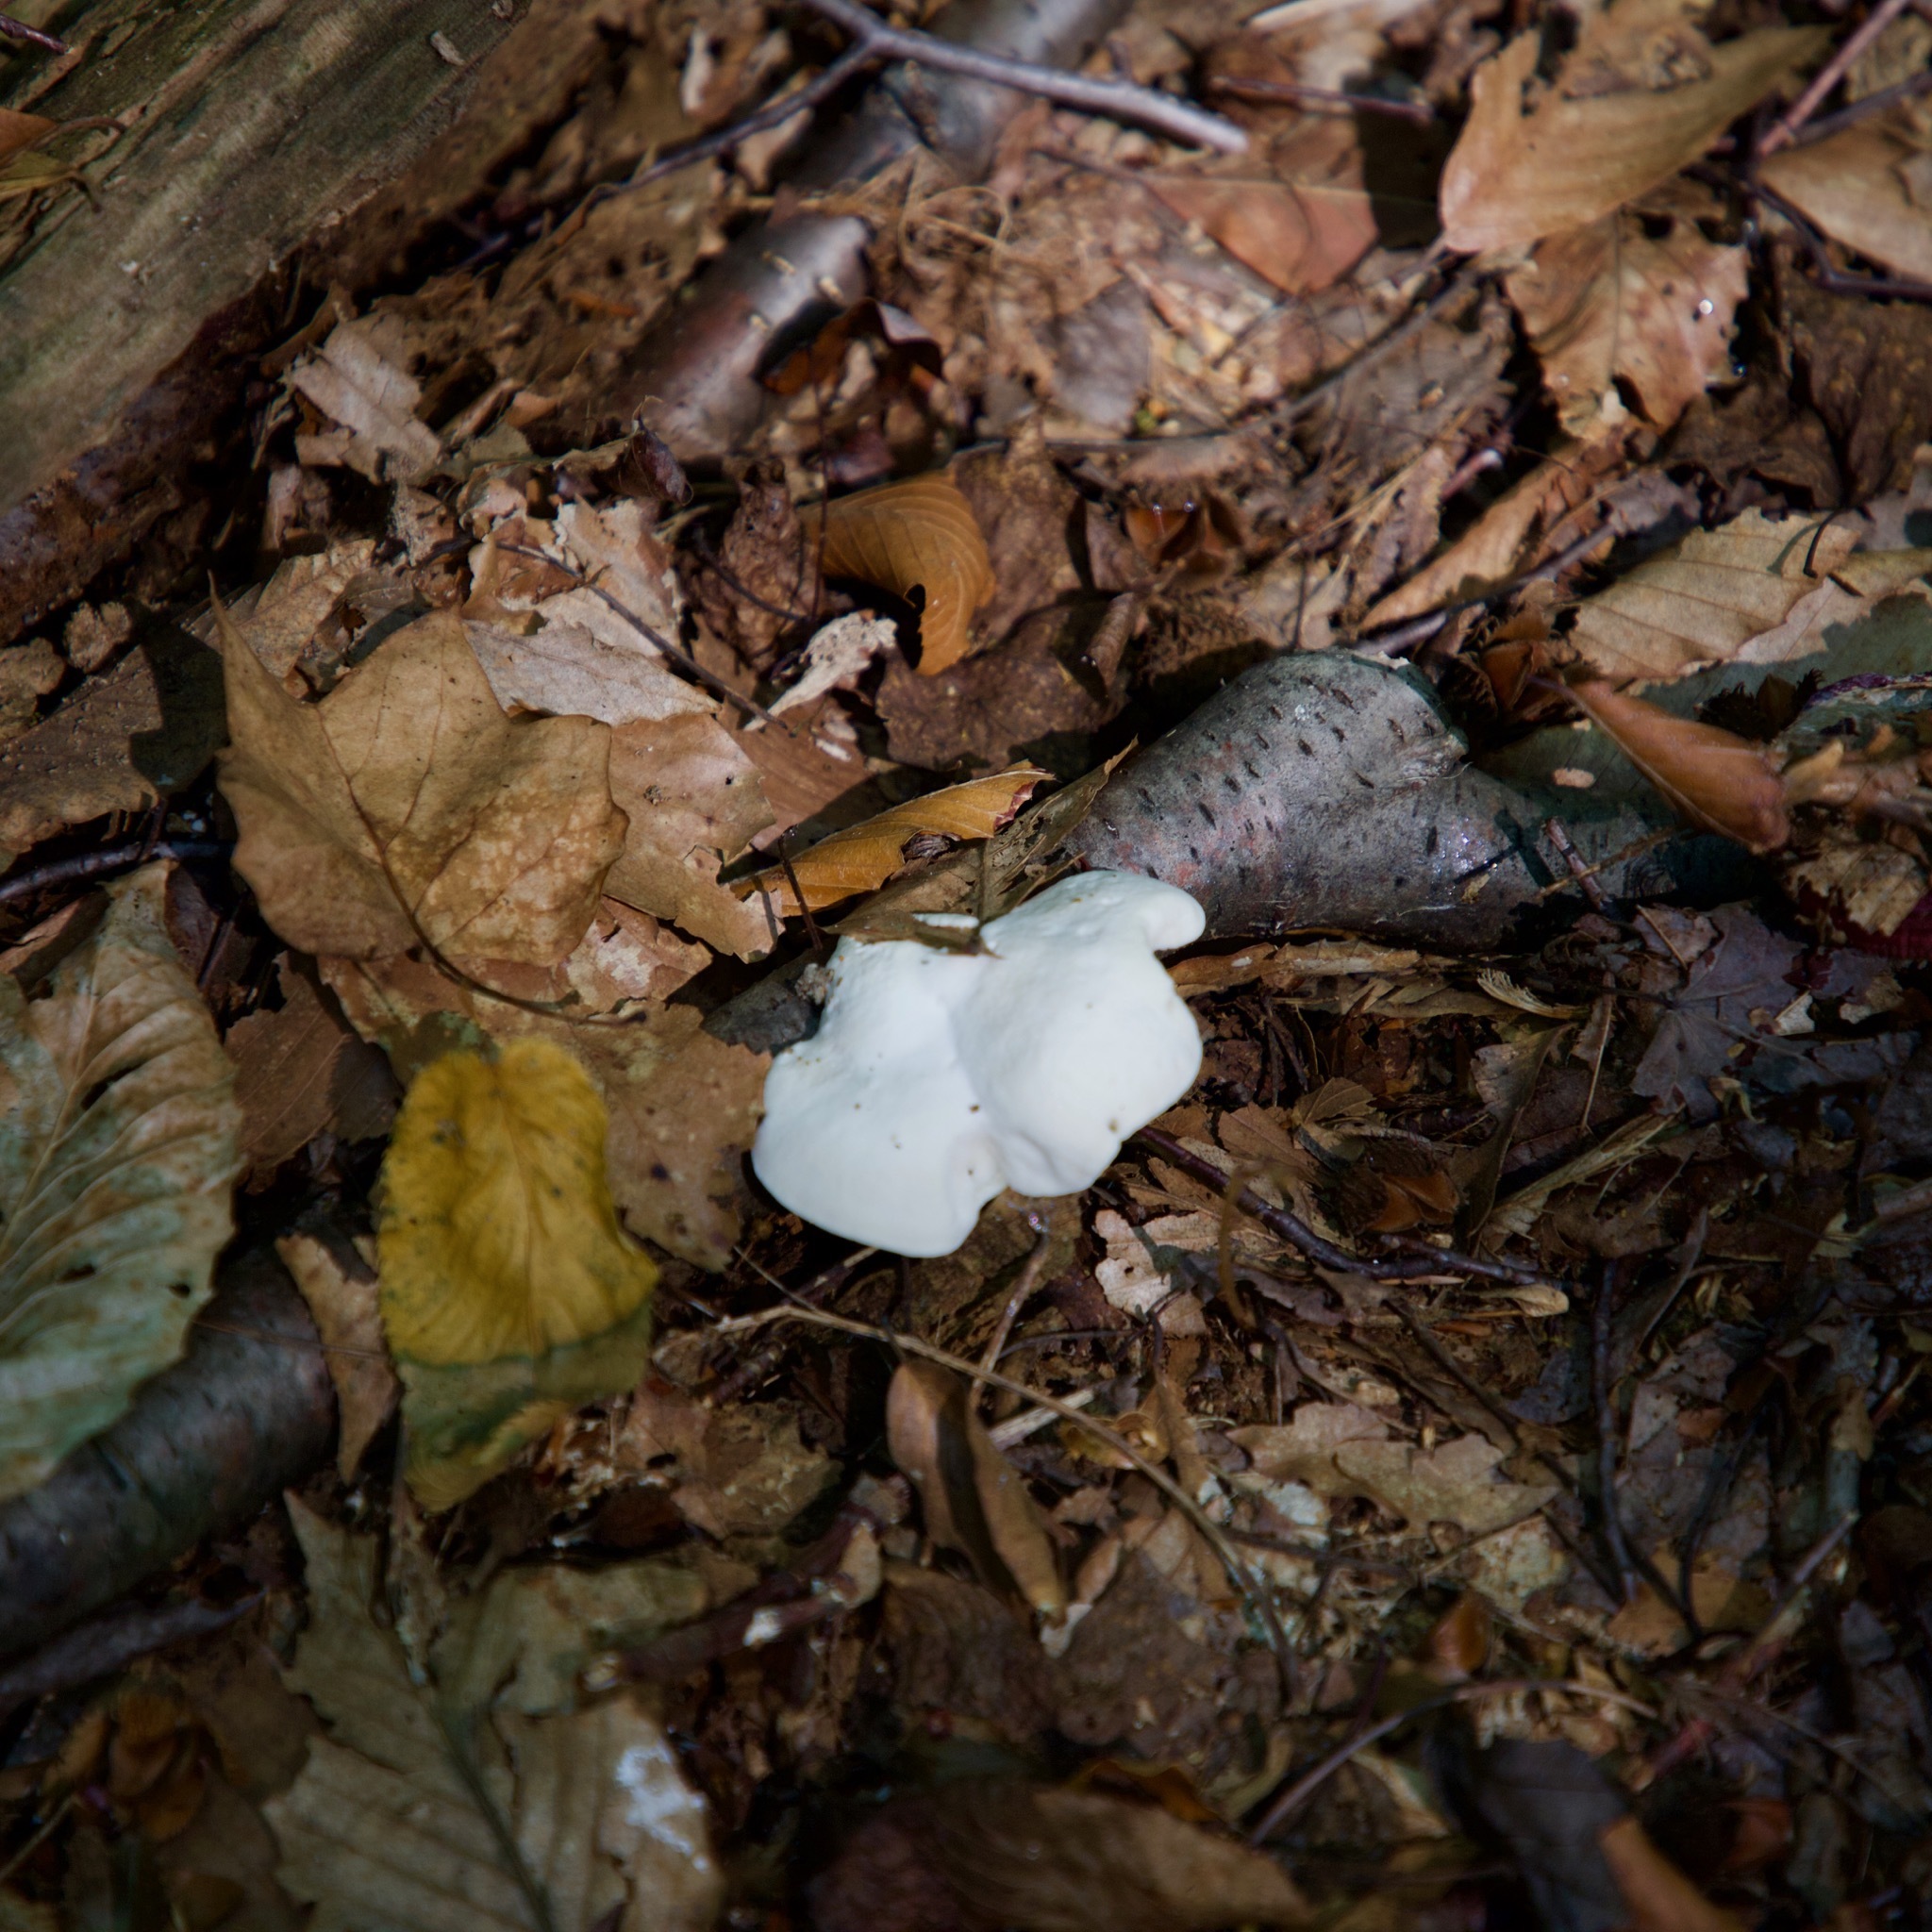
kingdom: Fungi
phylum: Basidiomycota
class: Agaricomycetes
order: Polyporales
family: Incrustoporiaceae
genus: Tyromyces
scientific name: Tyromyces chioneus
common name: White cheese polypore
